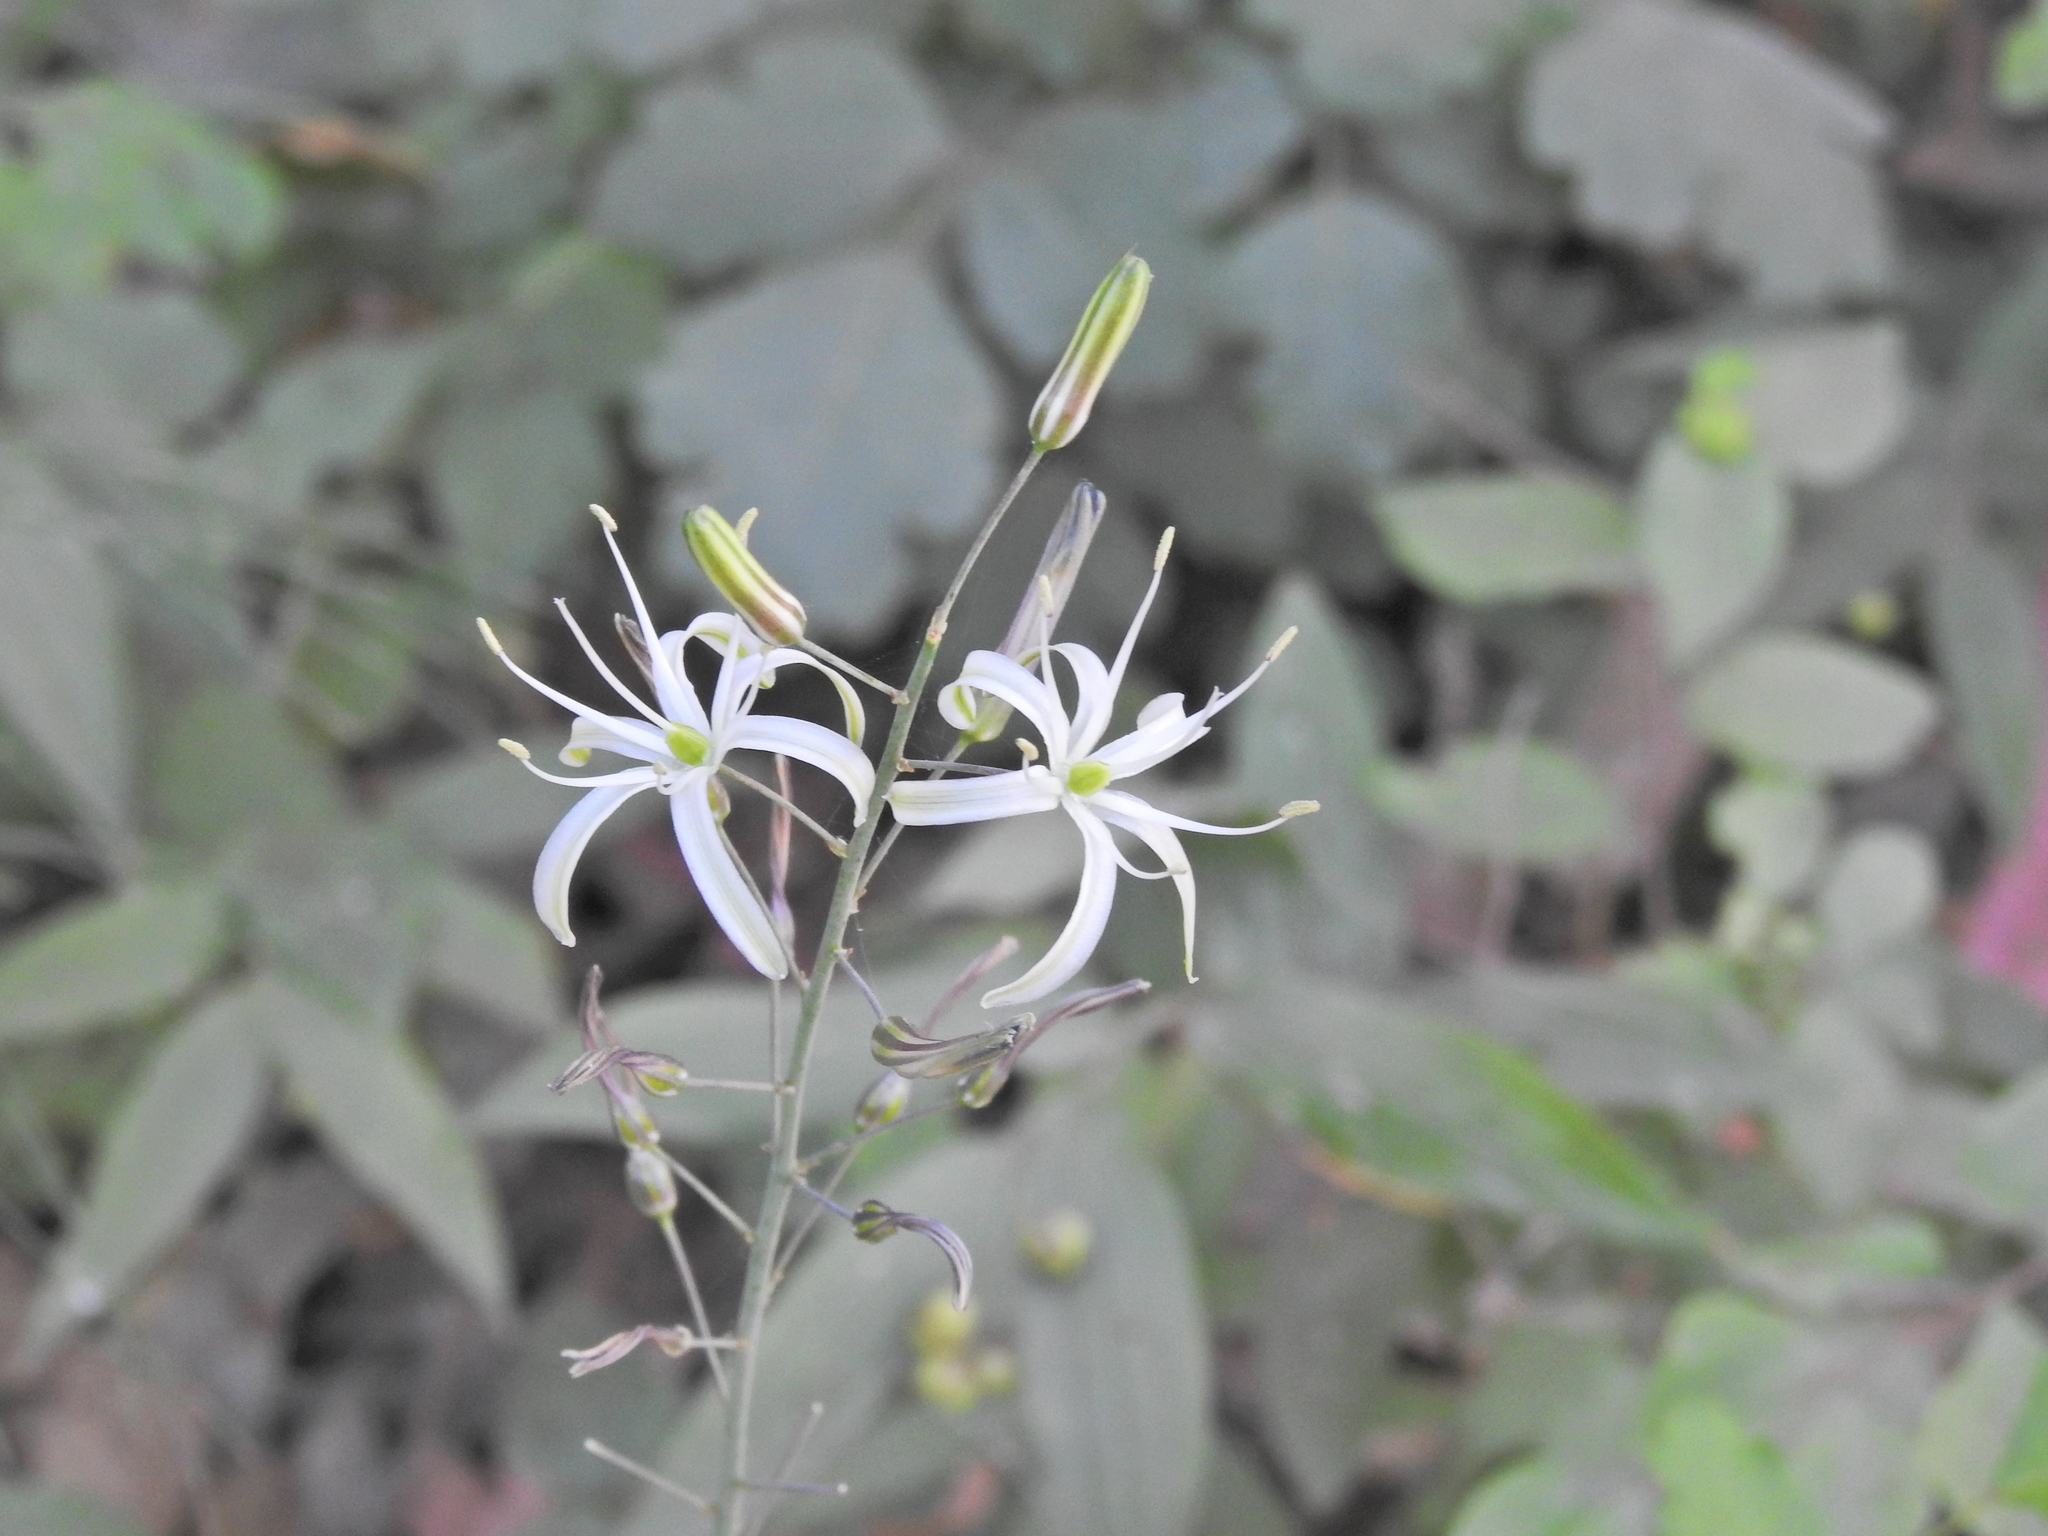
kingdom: Plantae
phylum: Tracheophyta
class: Liliopsida
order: Asparagales
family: Asparagaceae
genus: Chlorogalum
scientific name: Chlorogalum pomeridianum
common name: Amole
